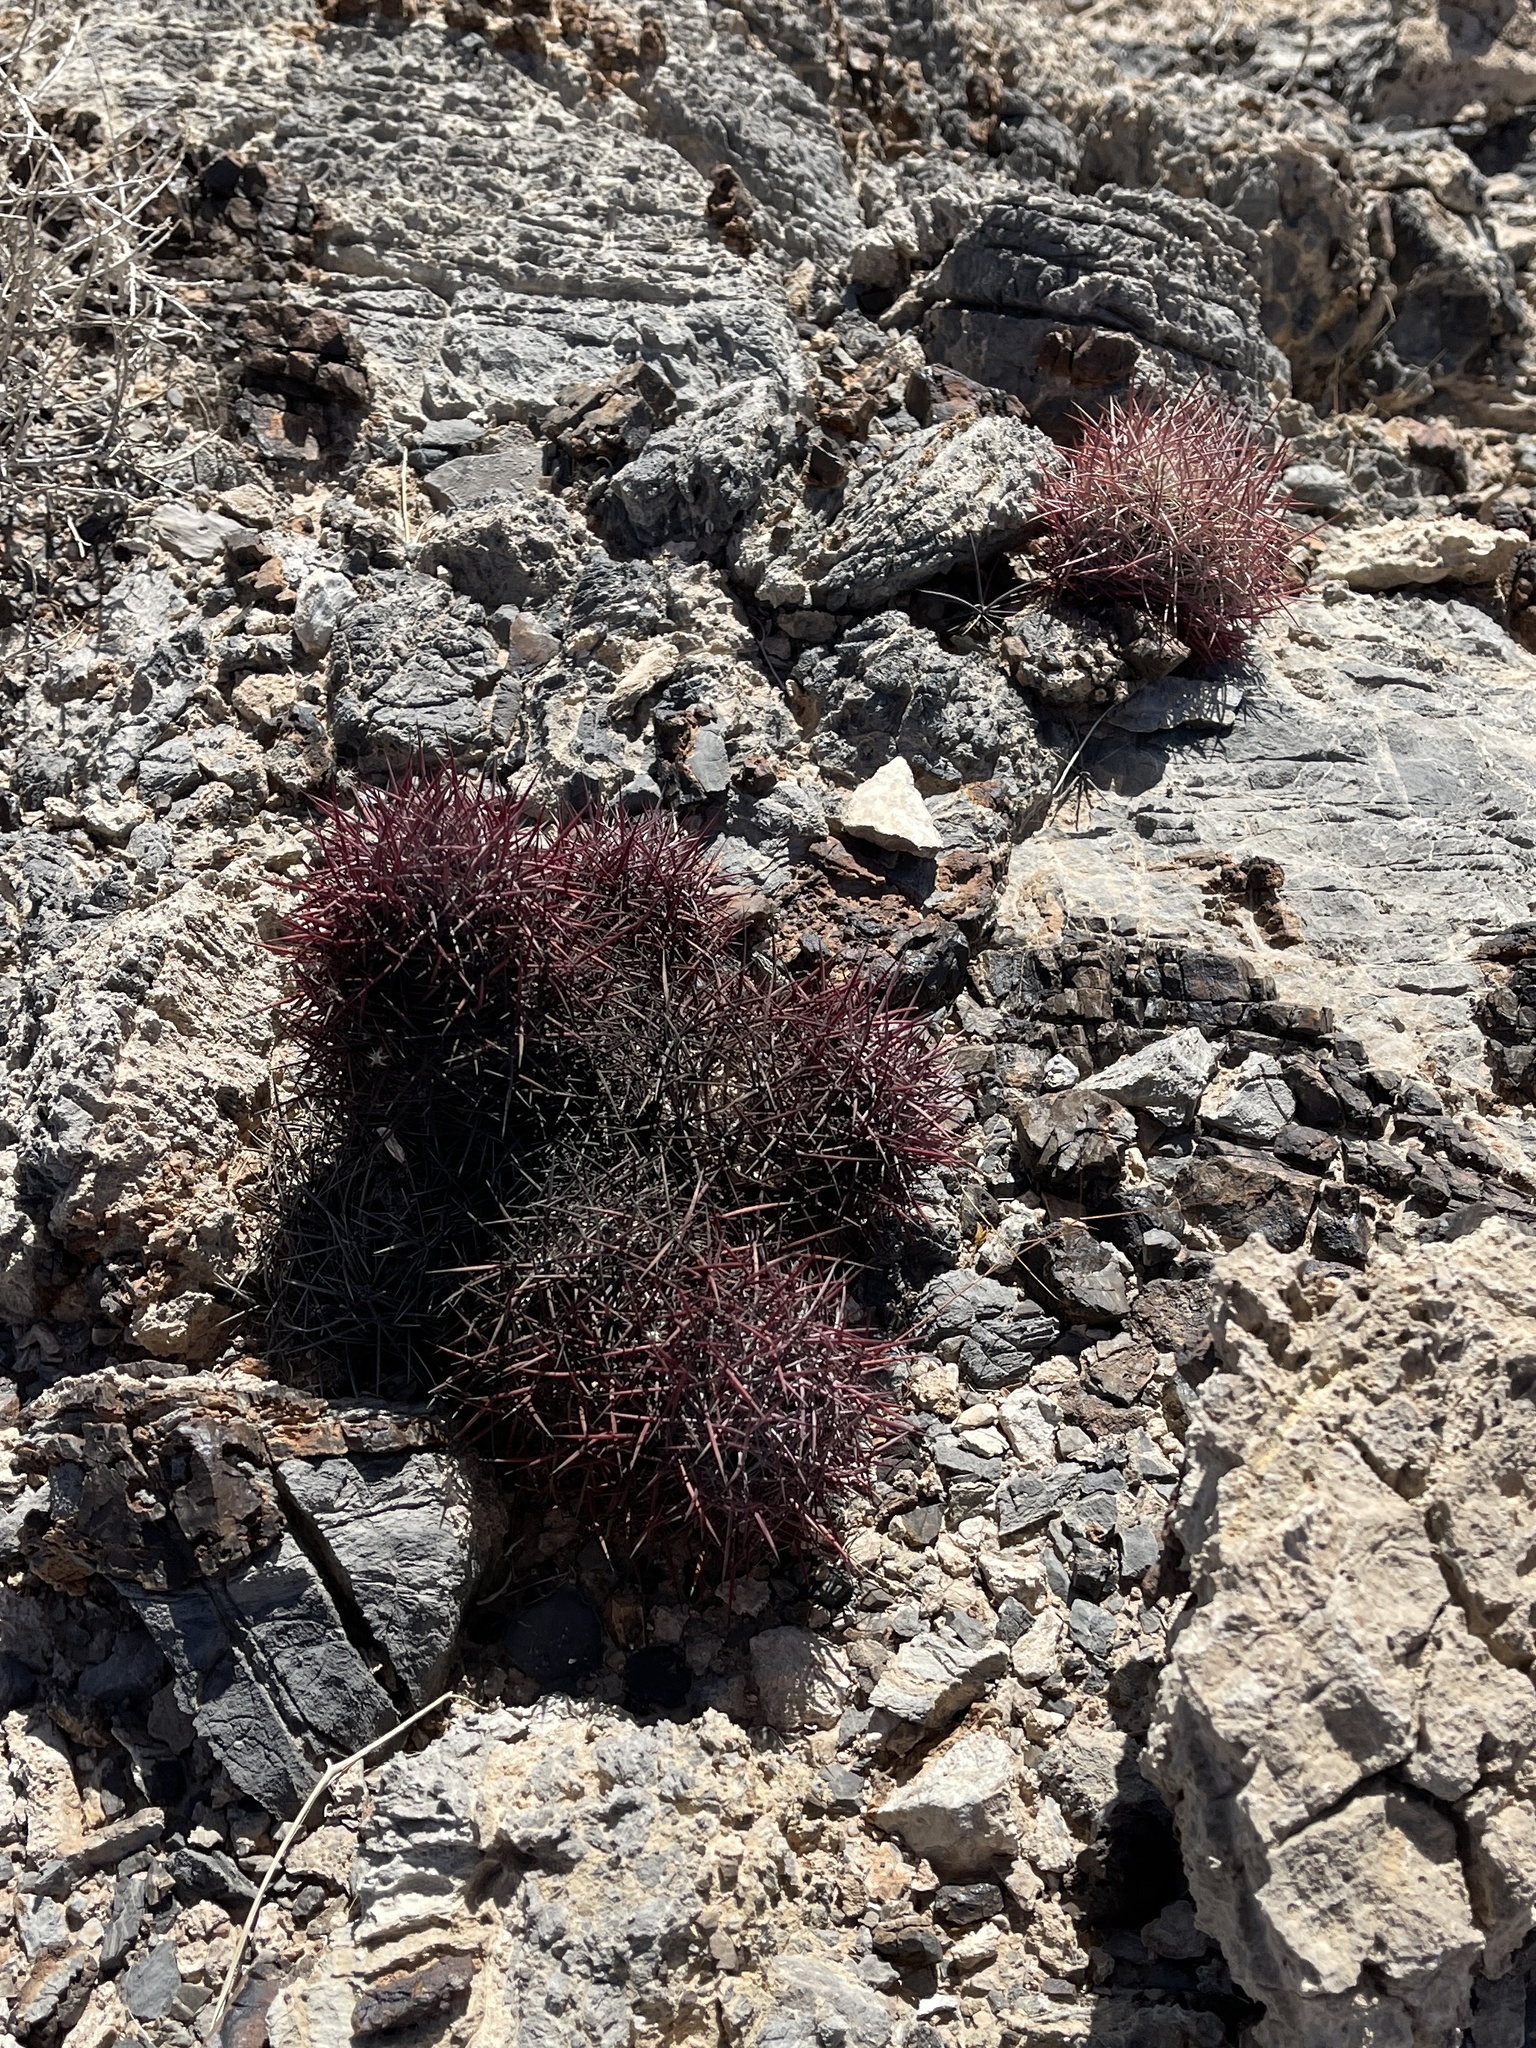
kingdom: Plantae
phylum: Tracheophyta
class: Magnoliopsida
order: Caryophyllales
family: Cactaceae
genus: Sclerocactus
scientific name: Sclerocactus johnsonii
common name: Eight-spine fishhook cactus
